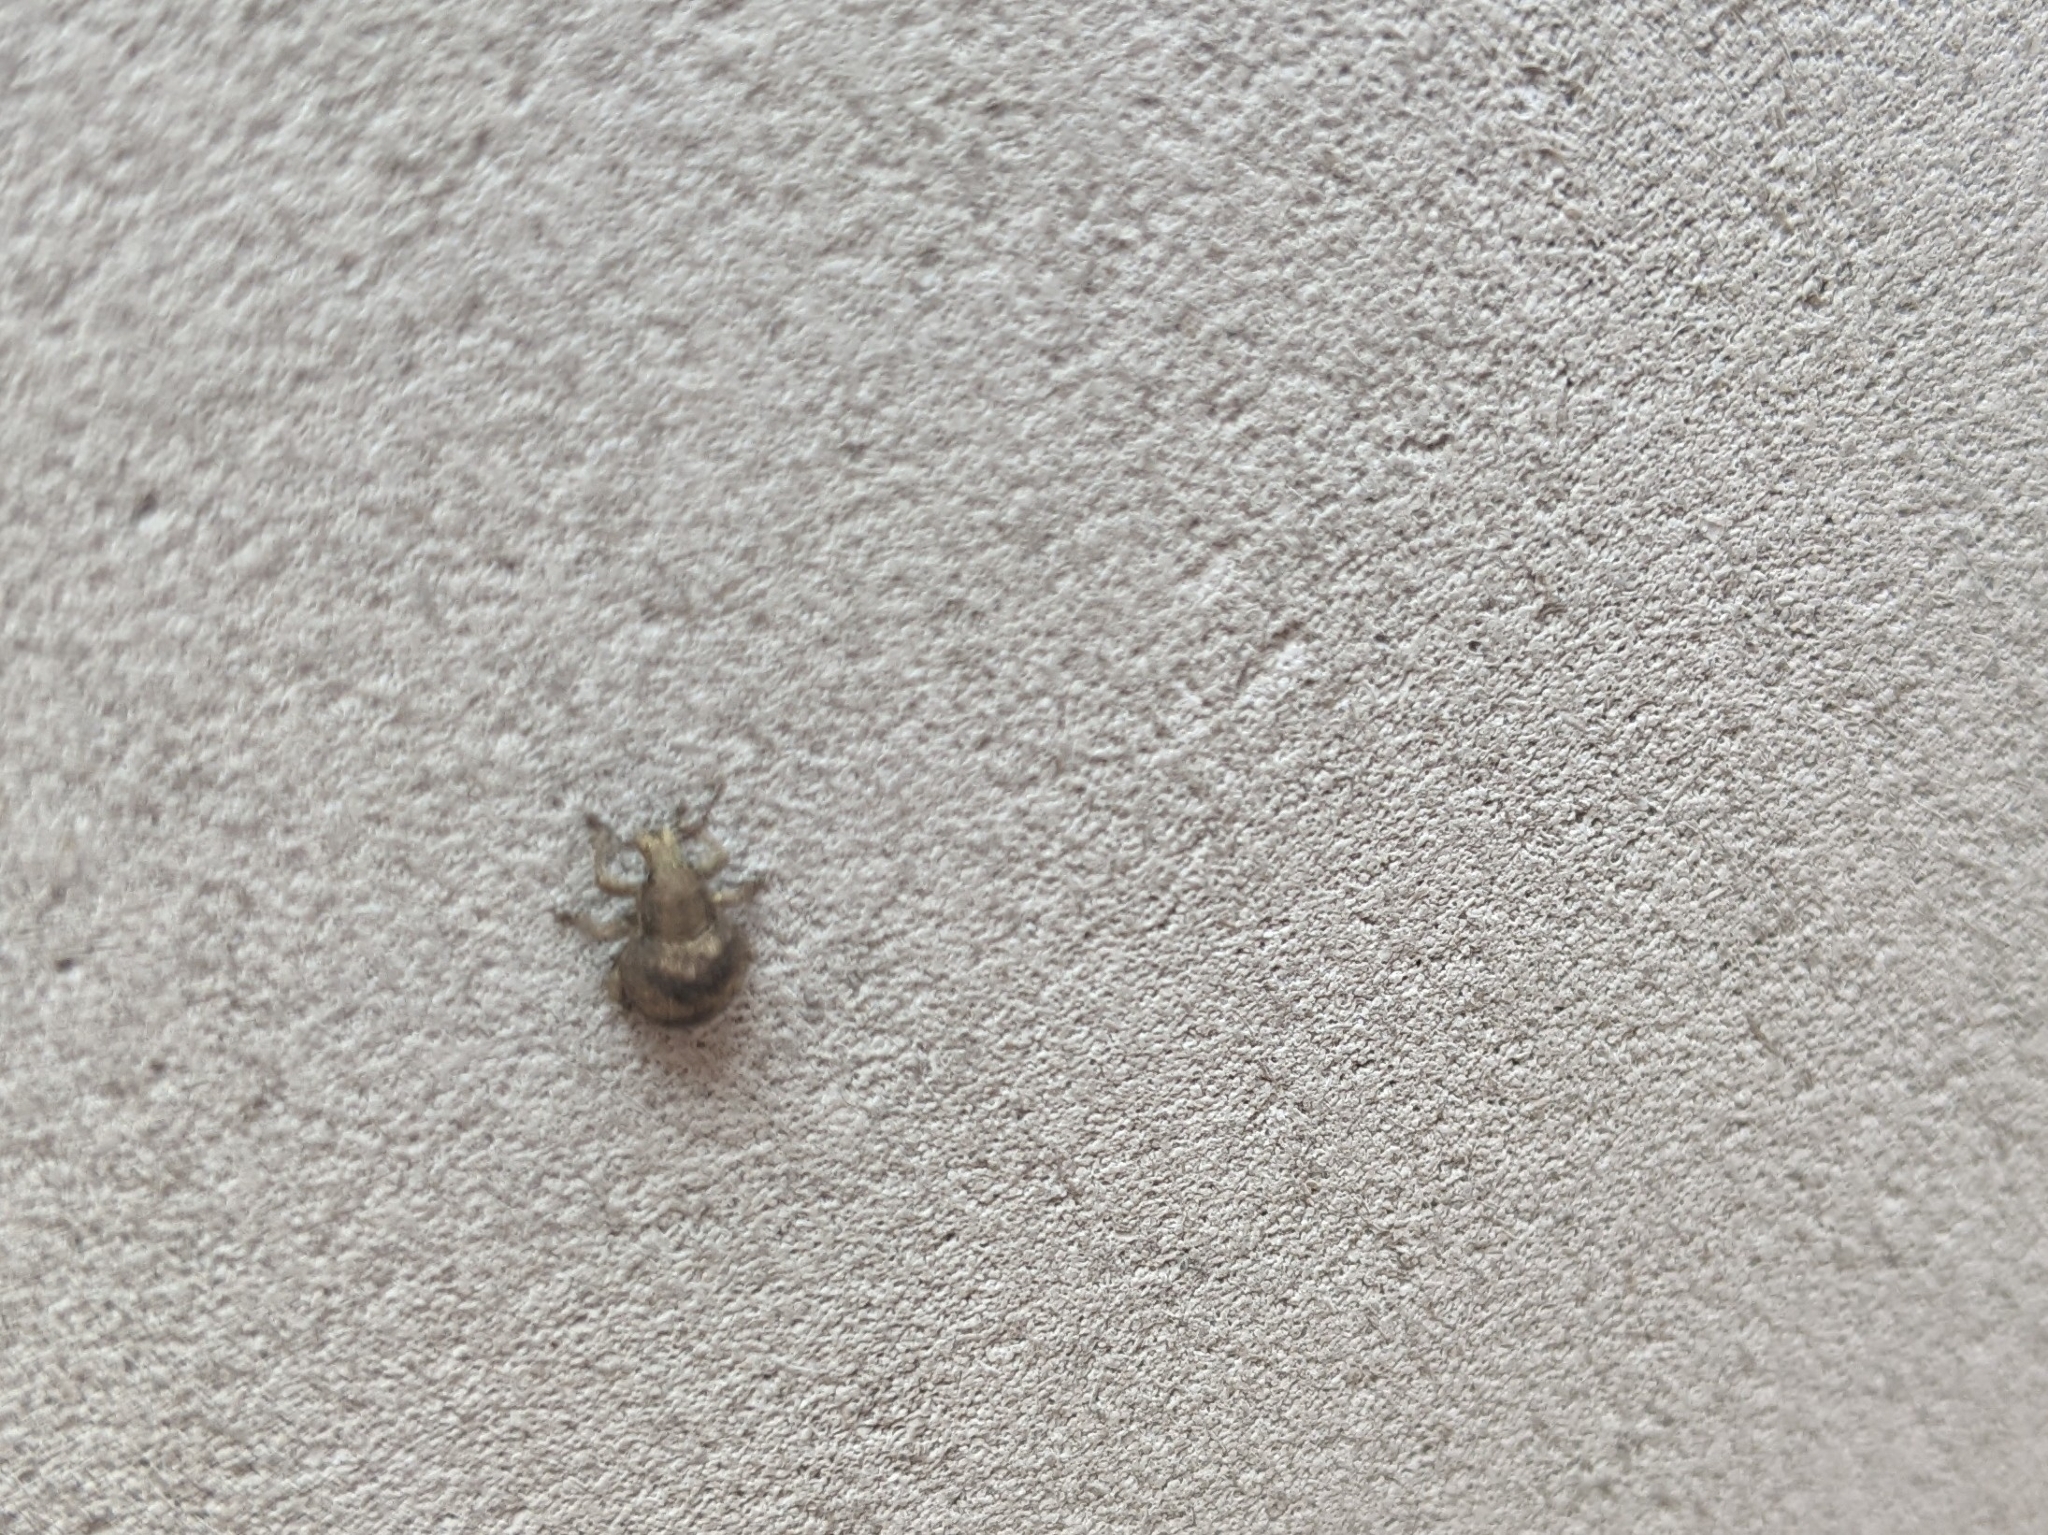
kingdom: Animalia
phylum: Arthropoda
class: Insecta
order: Coleoptera
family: Curculionidae
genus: Pseudocneorhinus
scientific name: Pseudocneorhinus bifasciatus
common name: Two-banded japanese weevil
